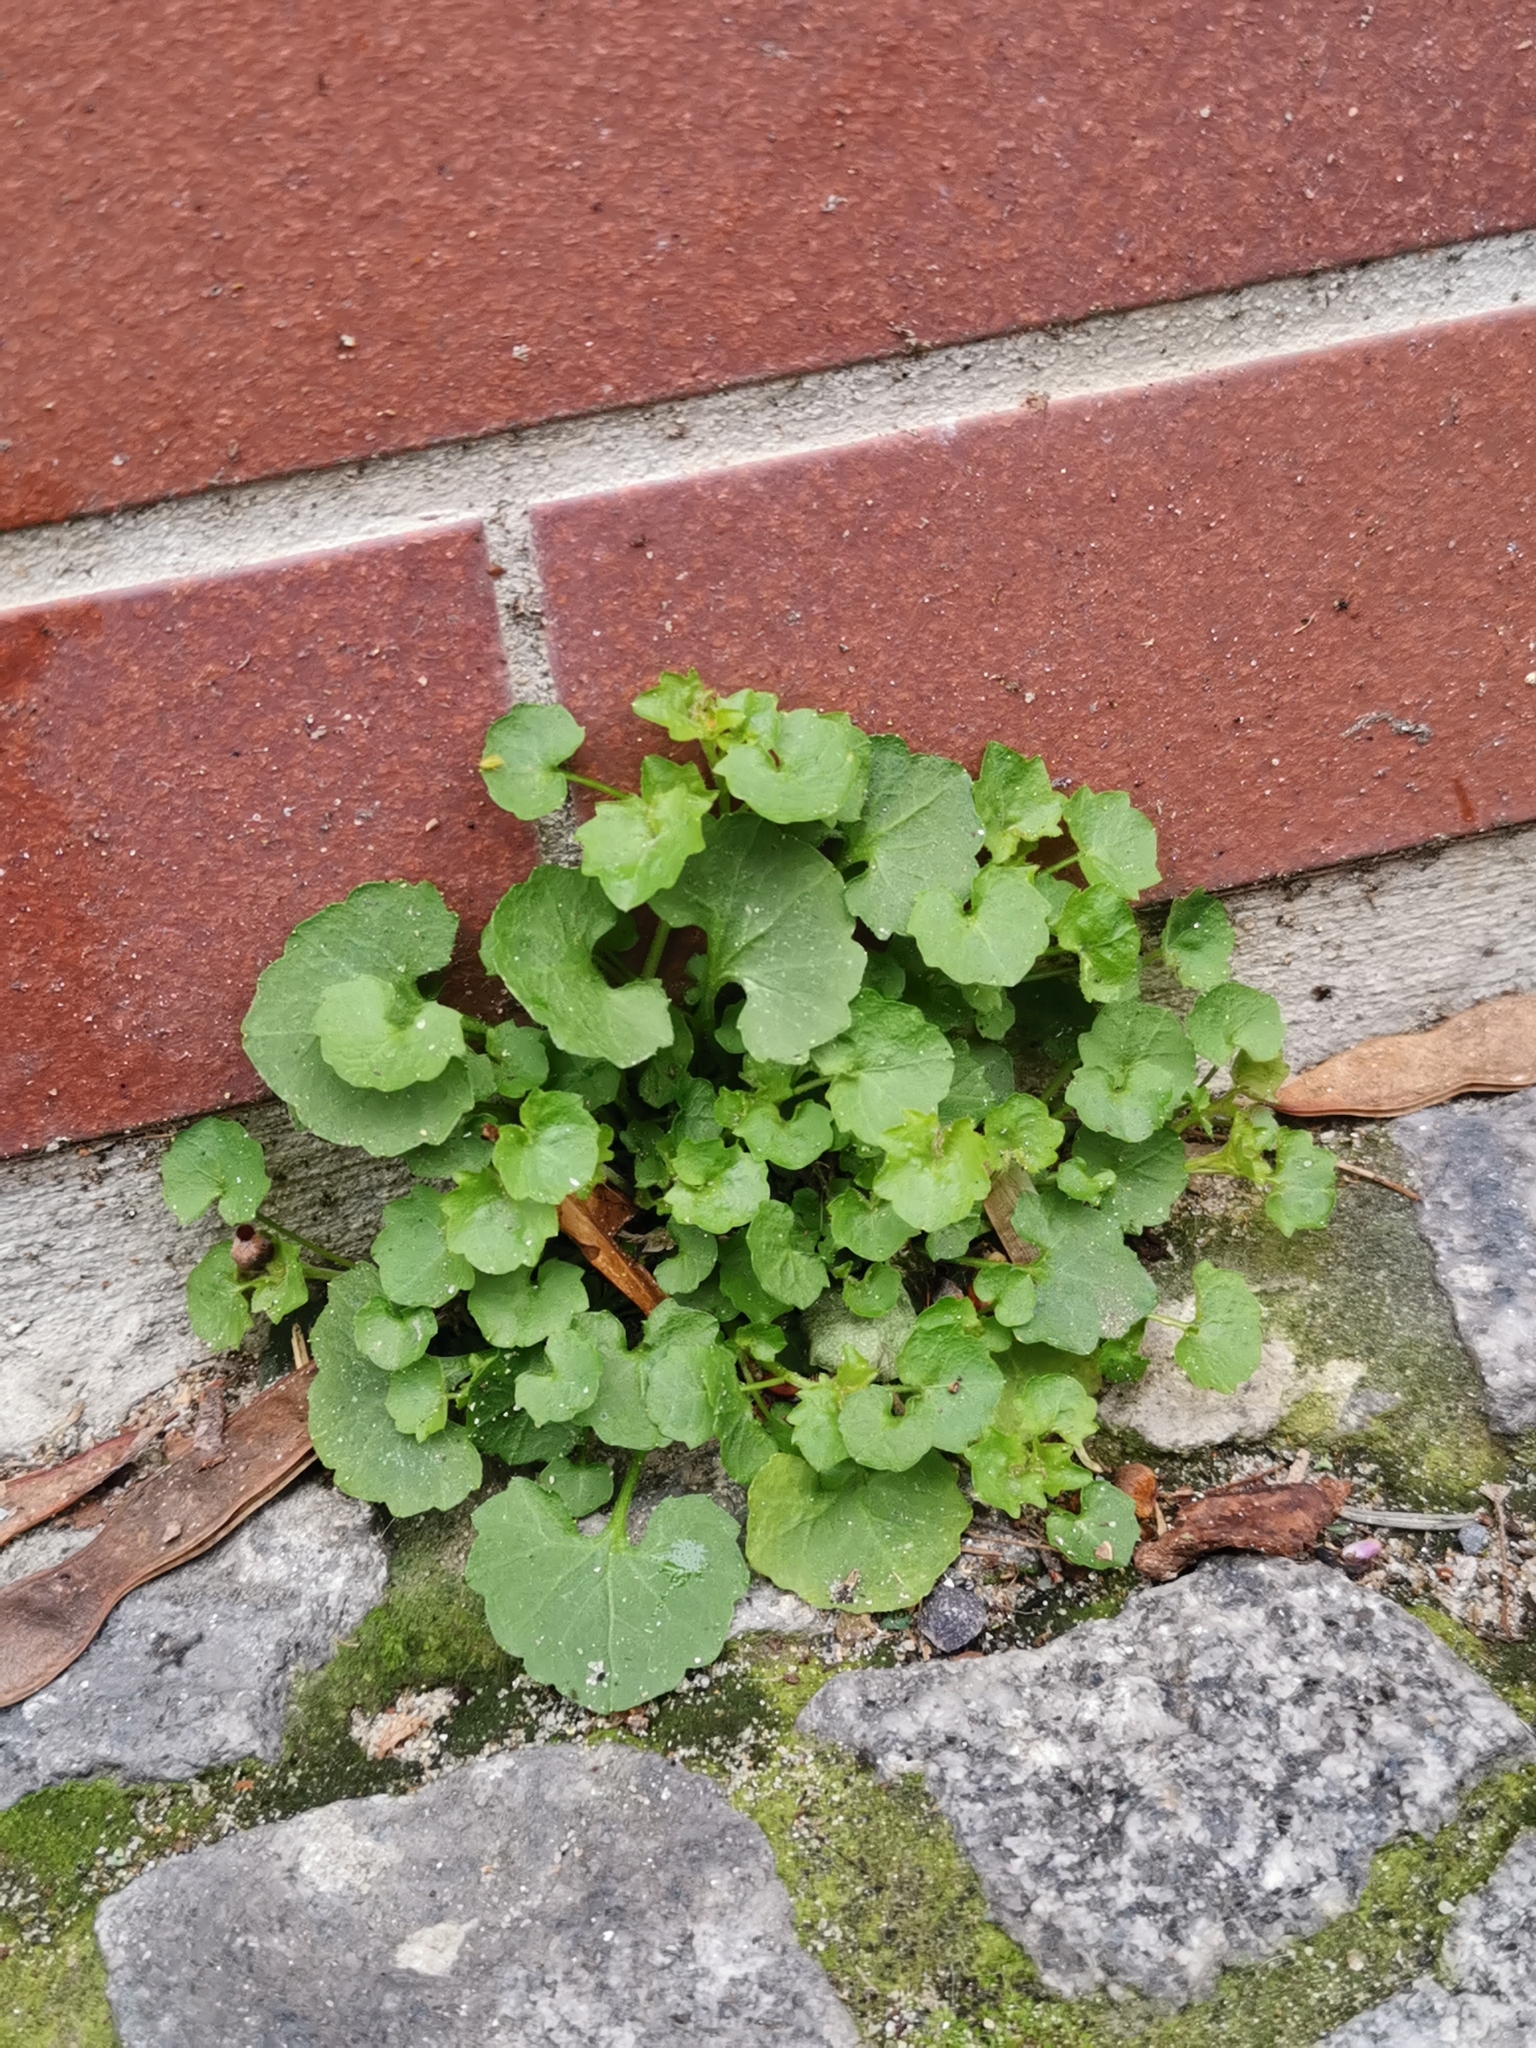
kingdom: Plantae
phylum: Tracheophyta
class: Magnoliopsida
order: Asterales
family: Campanulaceae
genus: Campanula
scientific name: Campanula poscharskyana
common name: Trailing bellflower
